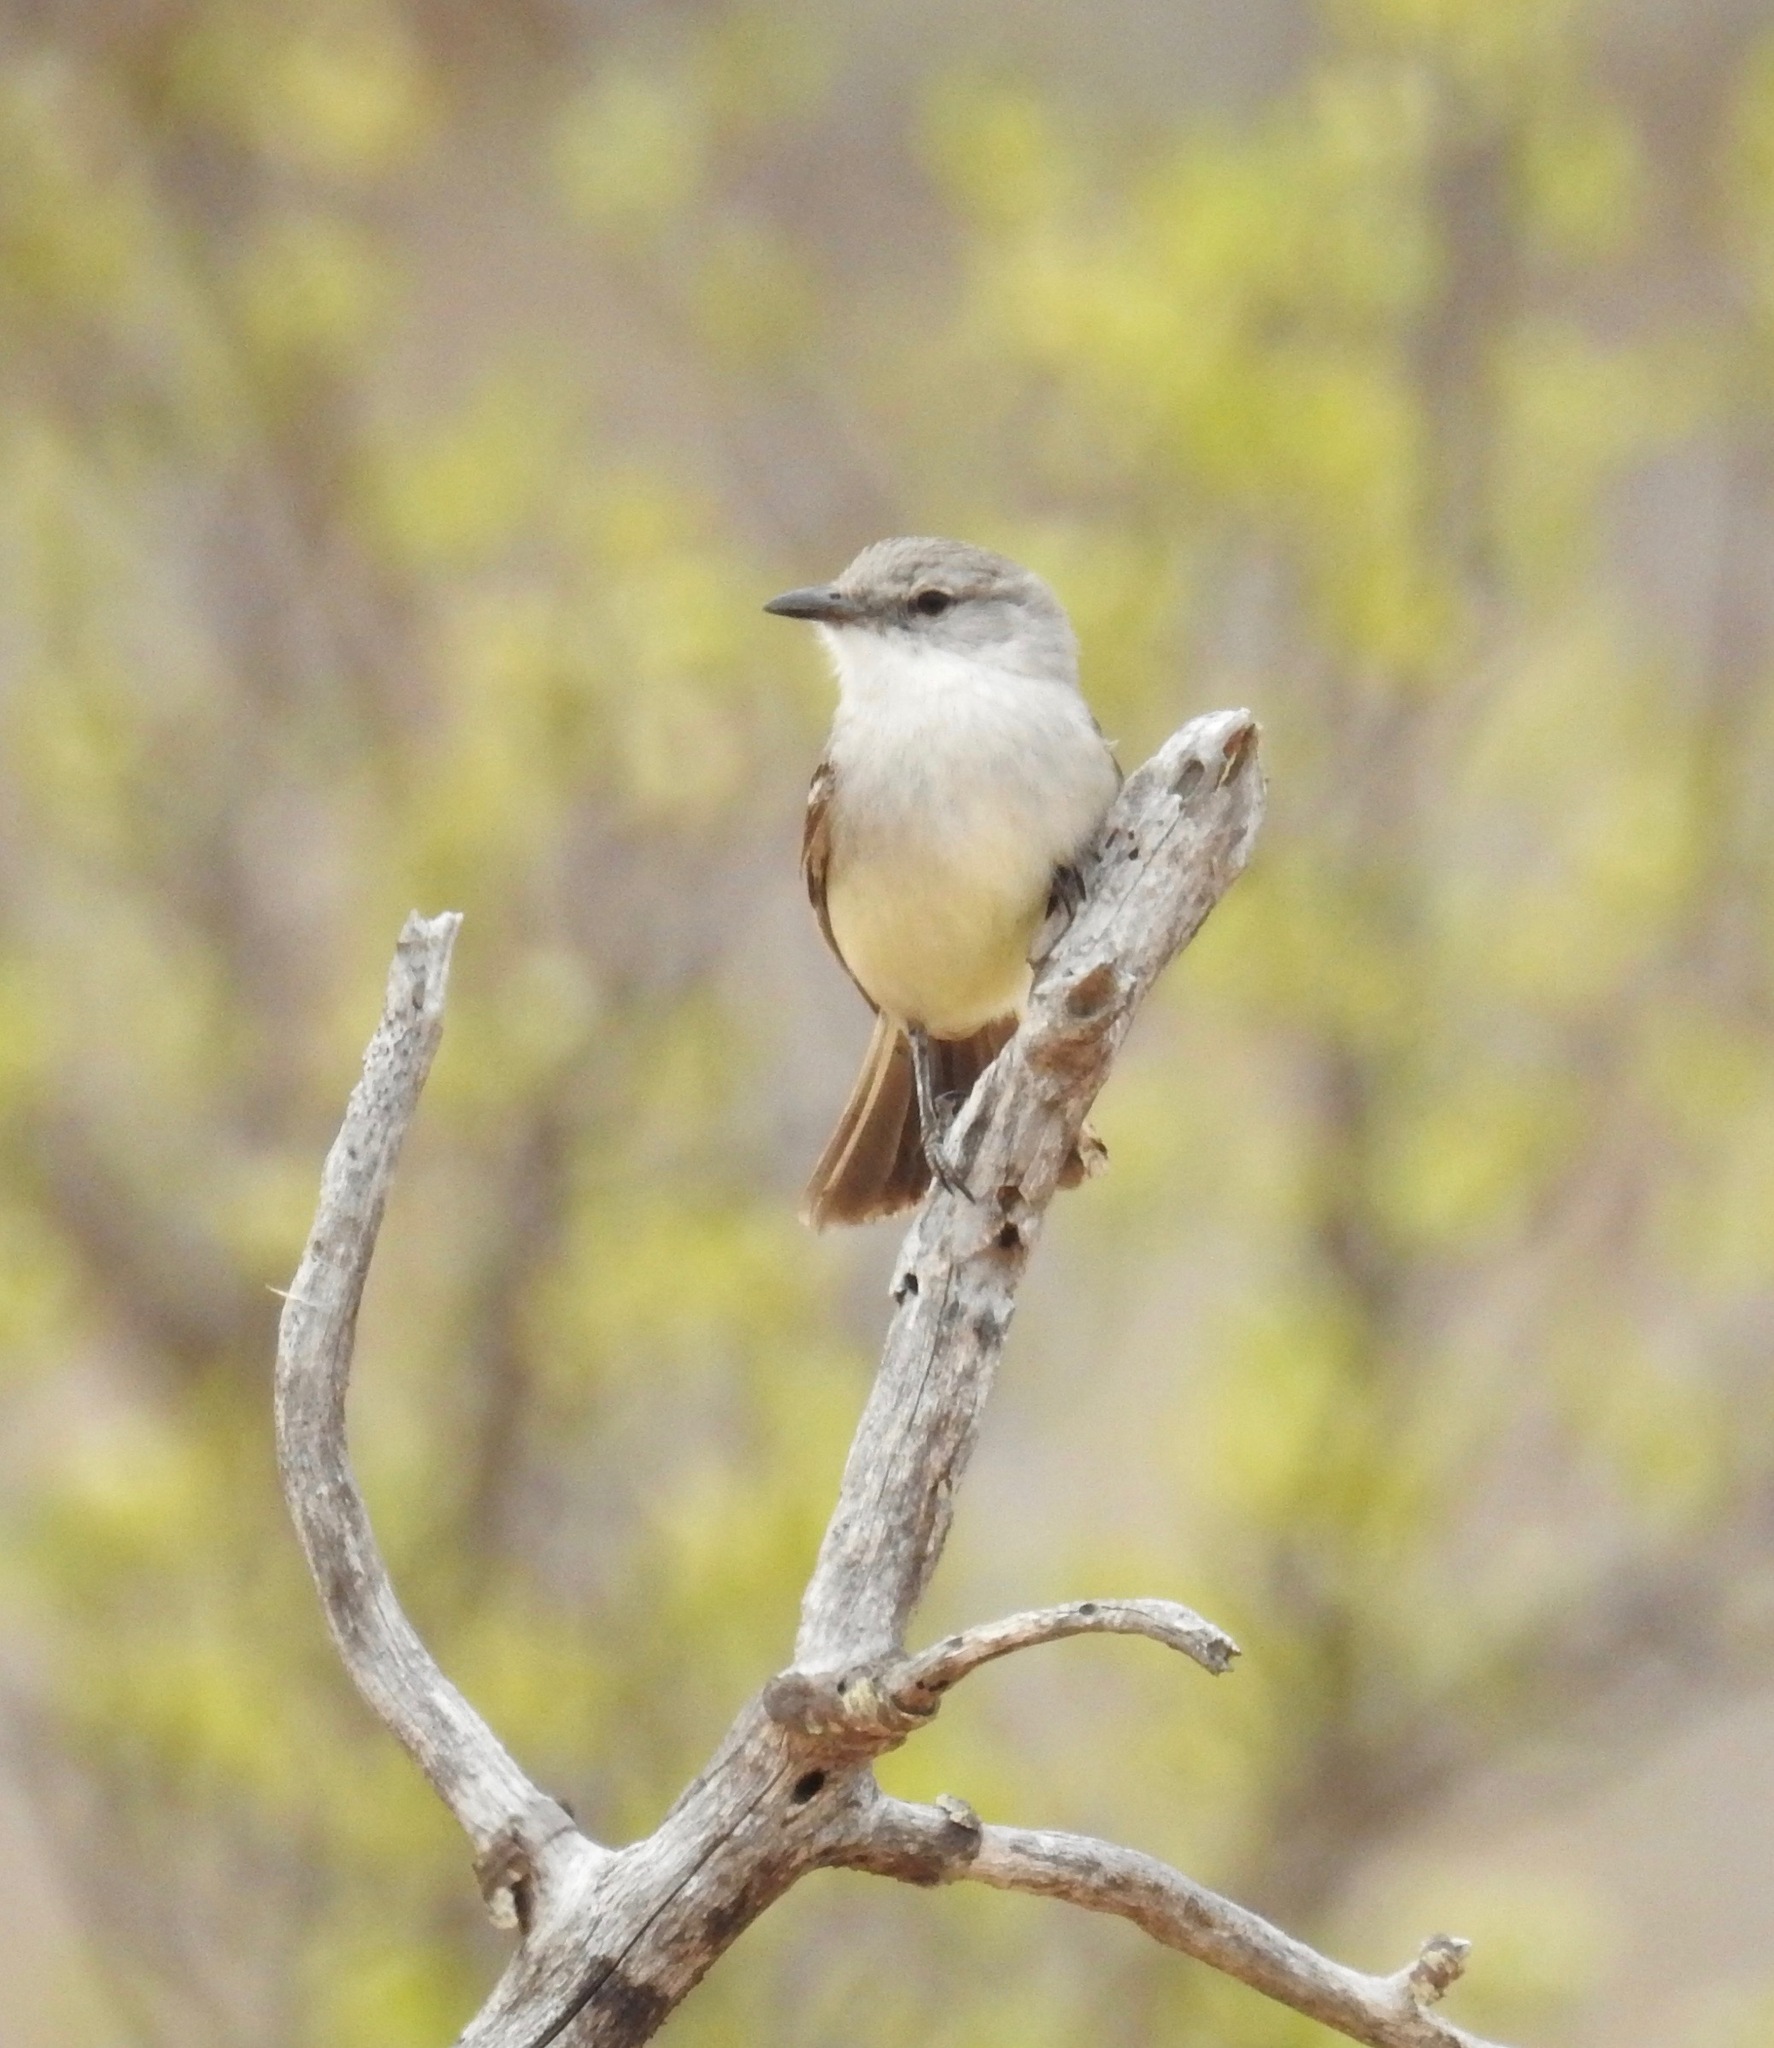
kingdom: Animalia
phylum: Chordata
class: Aves
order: Passeriformes
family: Tyrannidae
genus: Suiriri
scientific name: Suiriri suiriri
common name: Suiriri flycatcher
